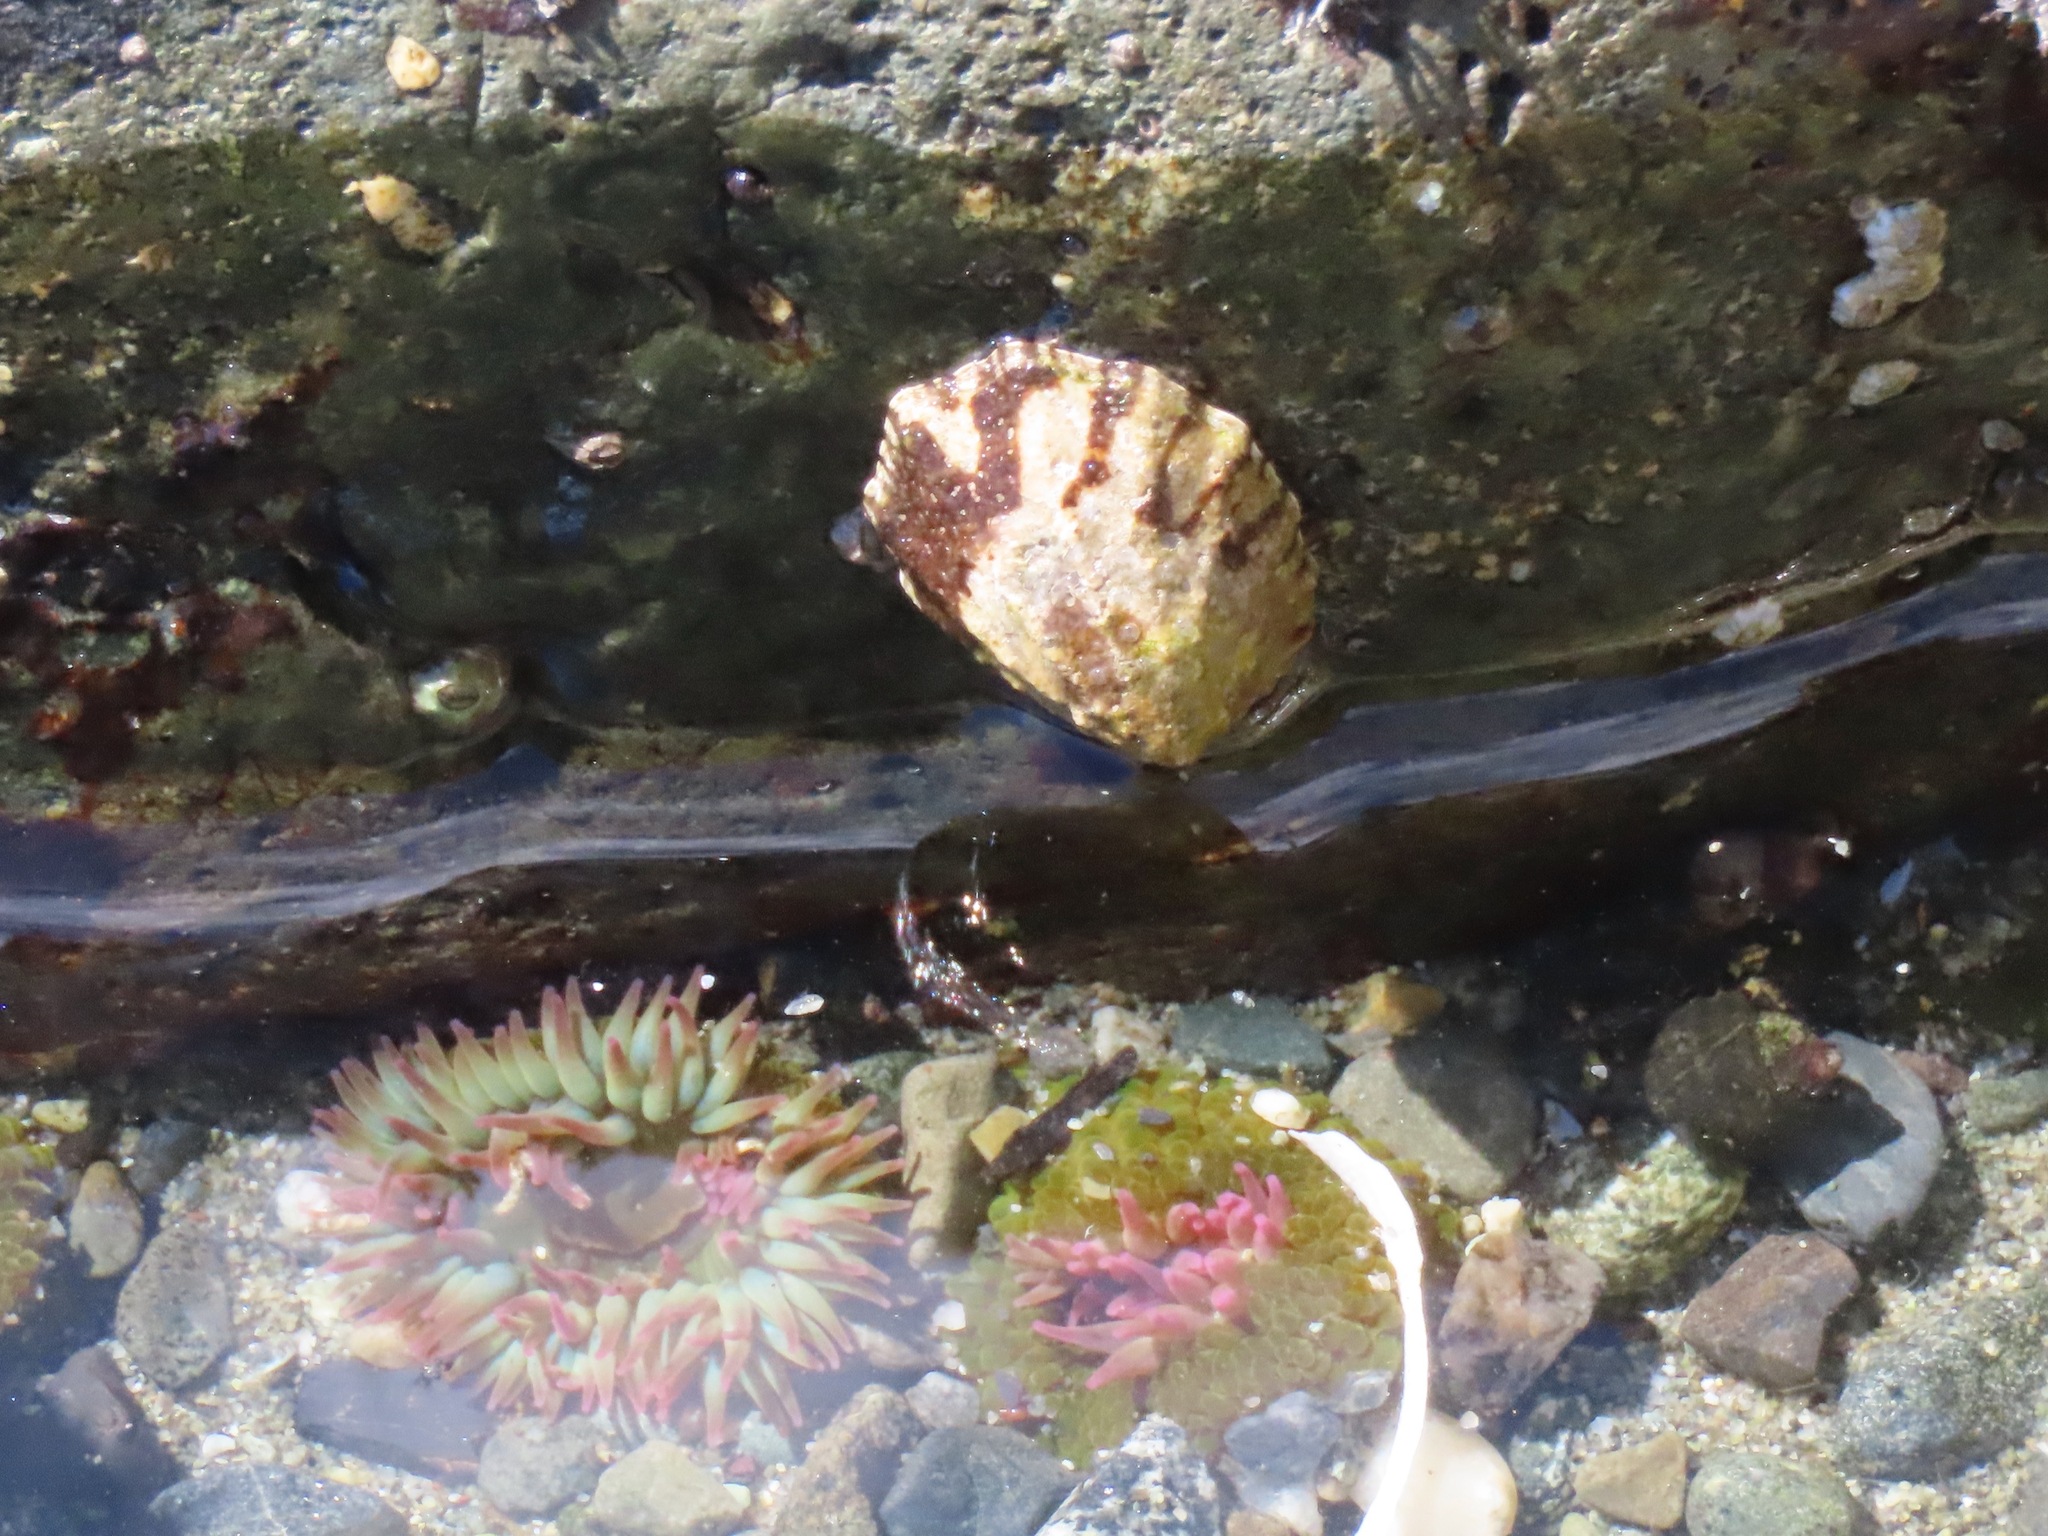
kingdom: Animalia
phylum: Mollusca
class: Gastropoda
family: Lottiidae
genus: Lottia
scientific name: Lottia digitalis
